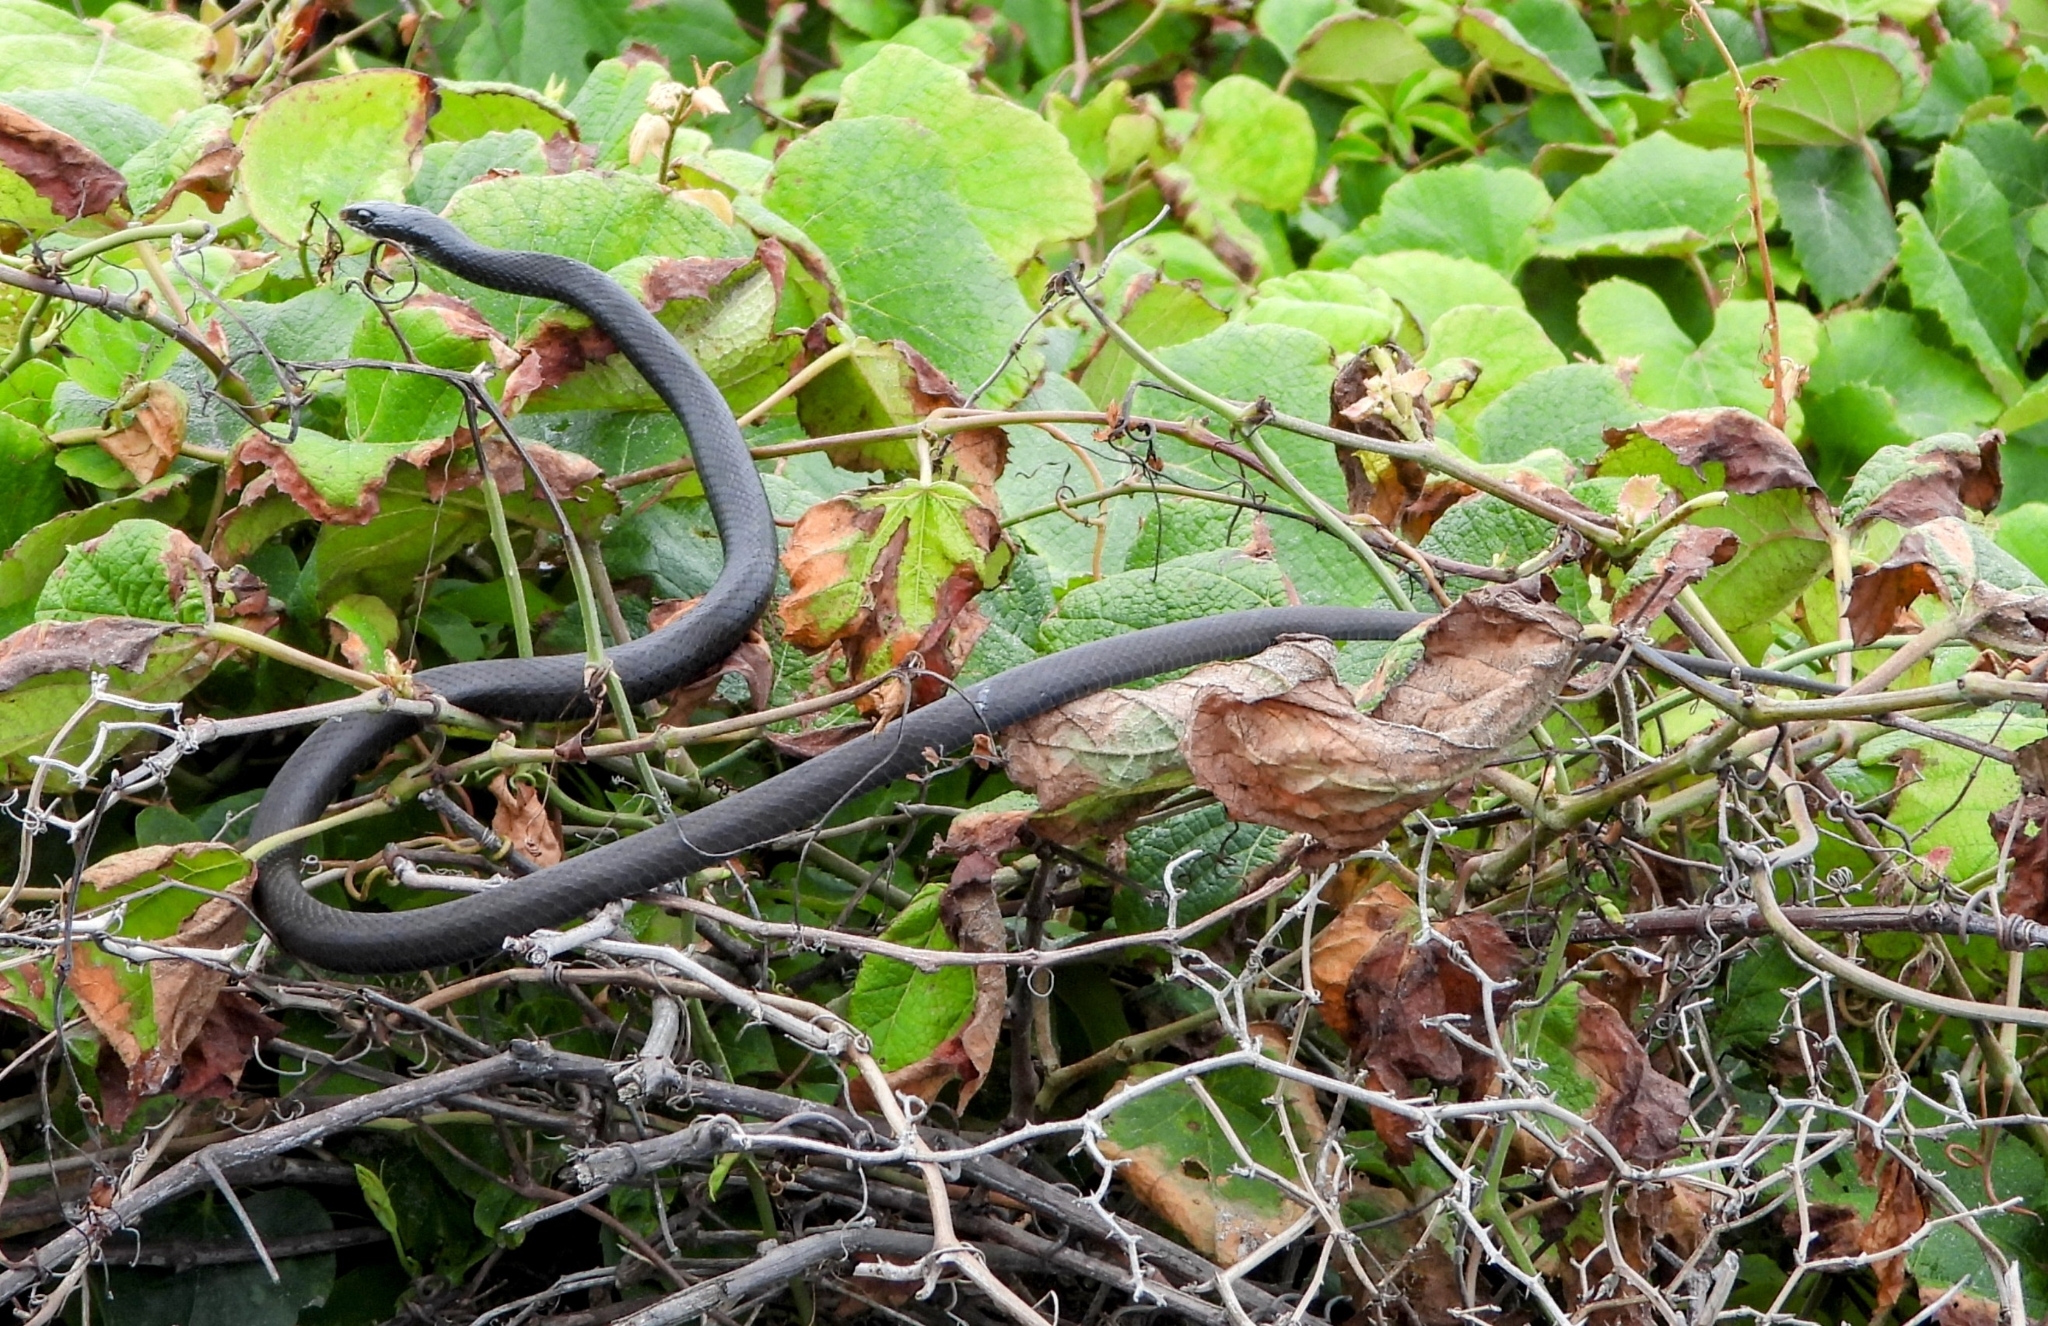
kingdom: Animalia
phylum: Chordata
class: Squamata
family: Colubridae
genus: Coluber
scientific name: Coluber constrictor
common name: Eastern racer
